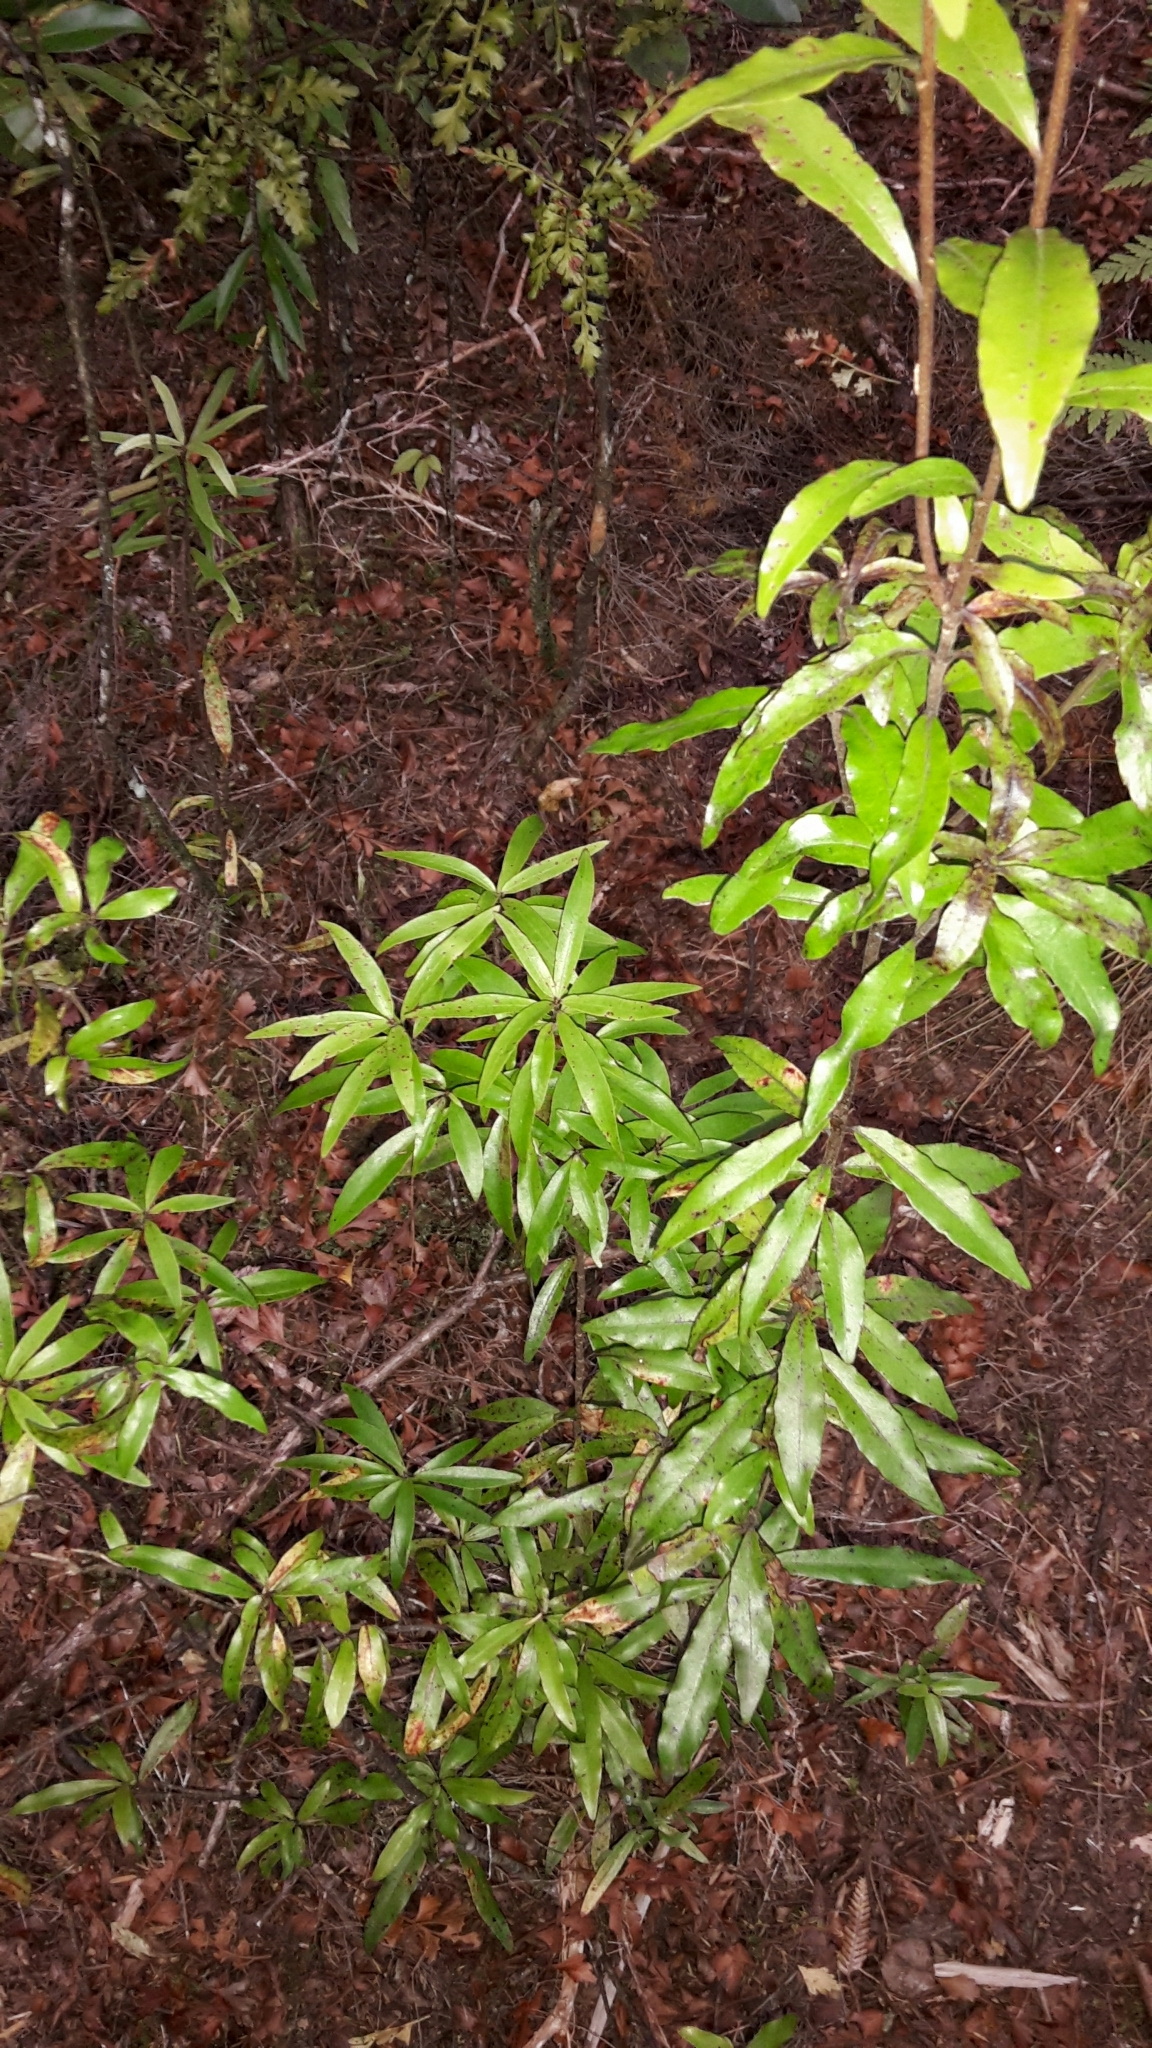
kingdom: Plantae
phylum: Tracheophyta
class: Magnoliopsida
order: Asterales
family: Alseuosmiaceae
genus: Alseuosmia
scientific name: Alseuosmia banksii
